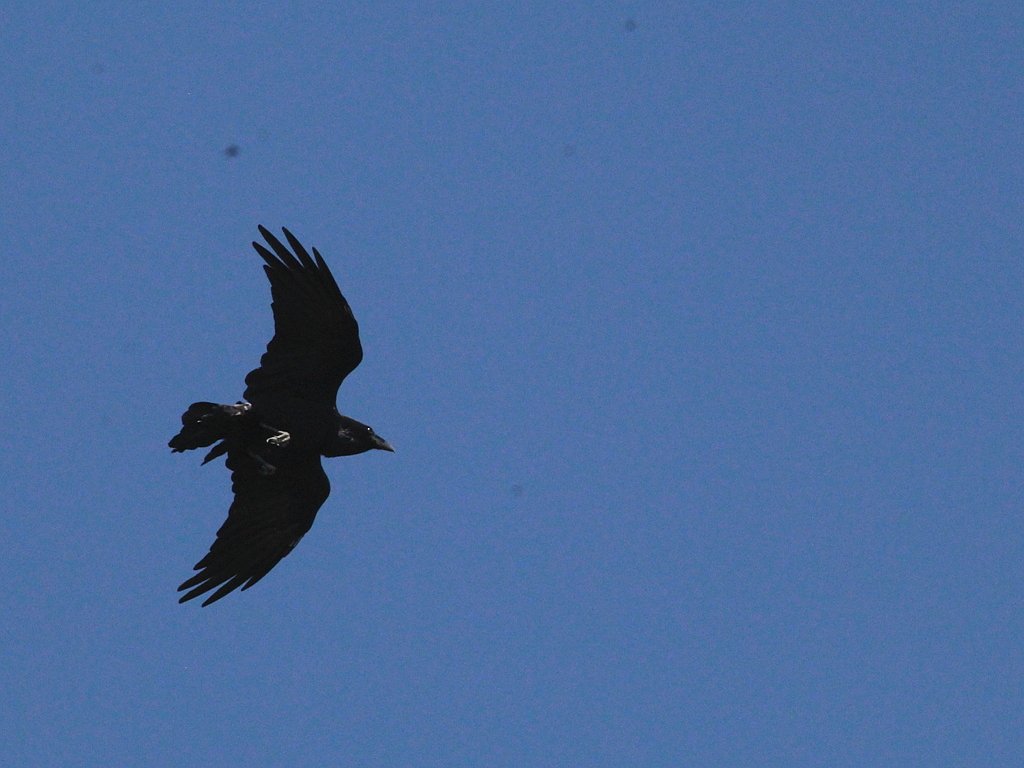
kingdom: Animalia
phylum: Chordata
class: Aves
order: Passeriformes
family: Corvidae
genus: Corvus
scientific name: Corvus corax
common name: Common raven
